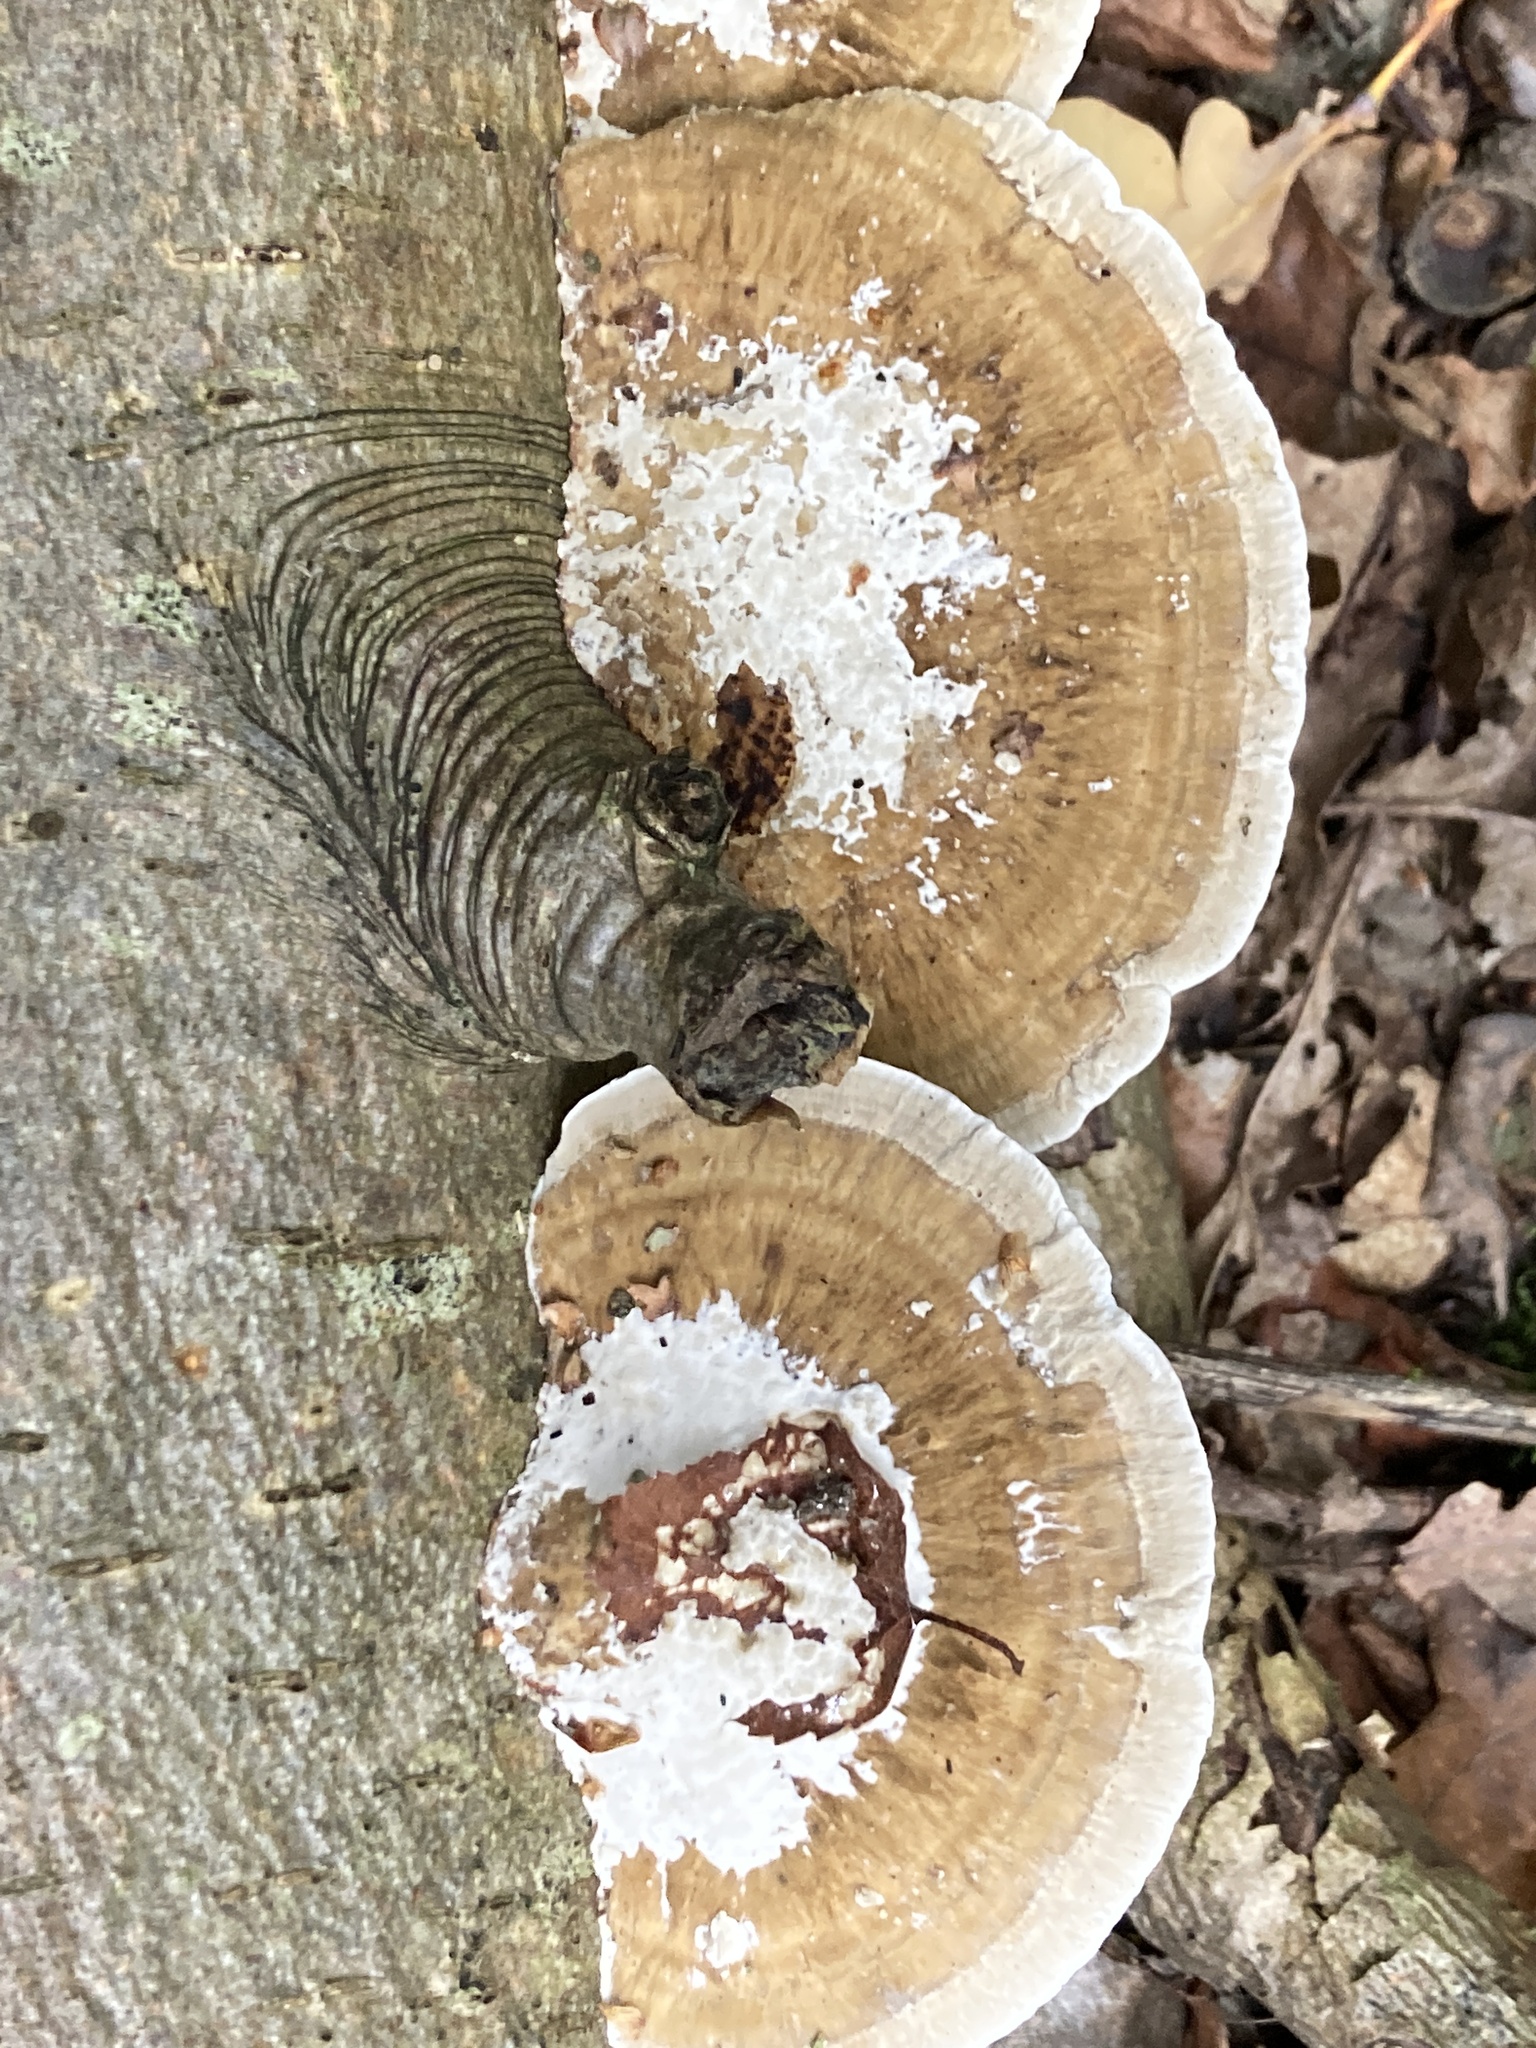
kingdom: Fungi
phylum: Basidiomycota
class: Agaricomycetes
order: Polyporales
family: Polyporaceae
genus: Daedaleopsis
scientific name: Daedaleopsis confragosa
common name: Blushing bracket
